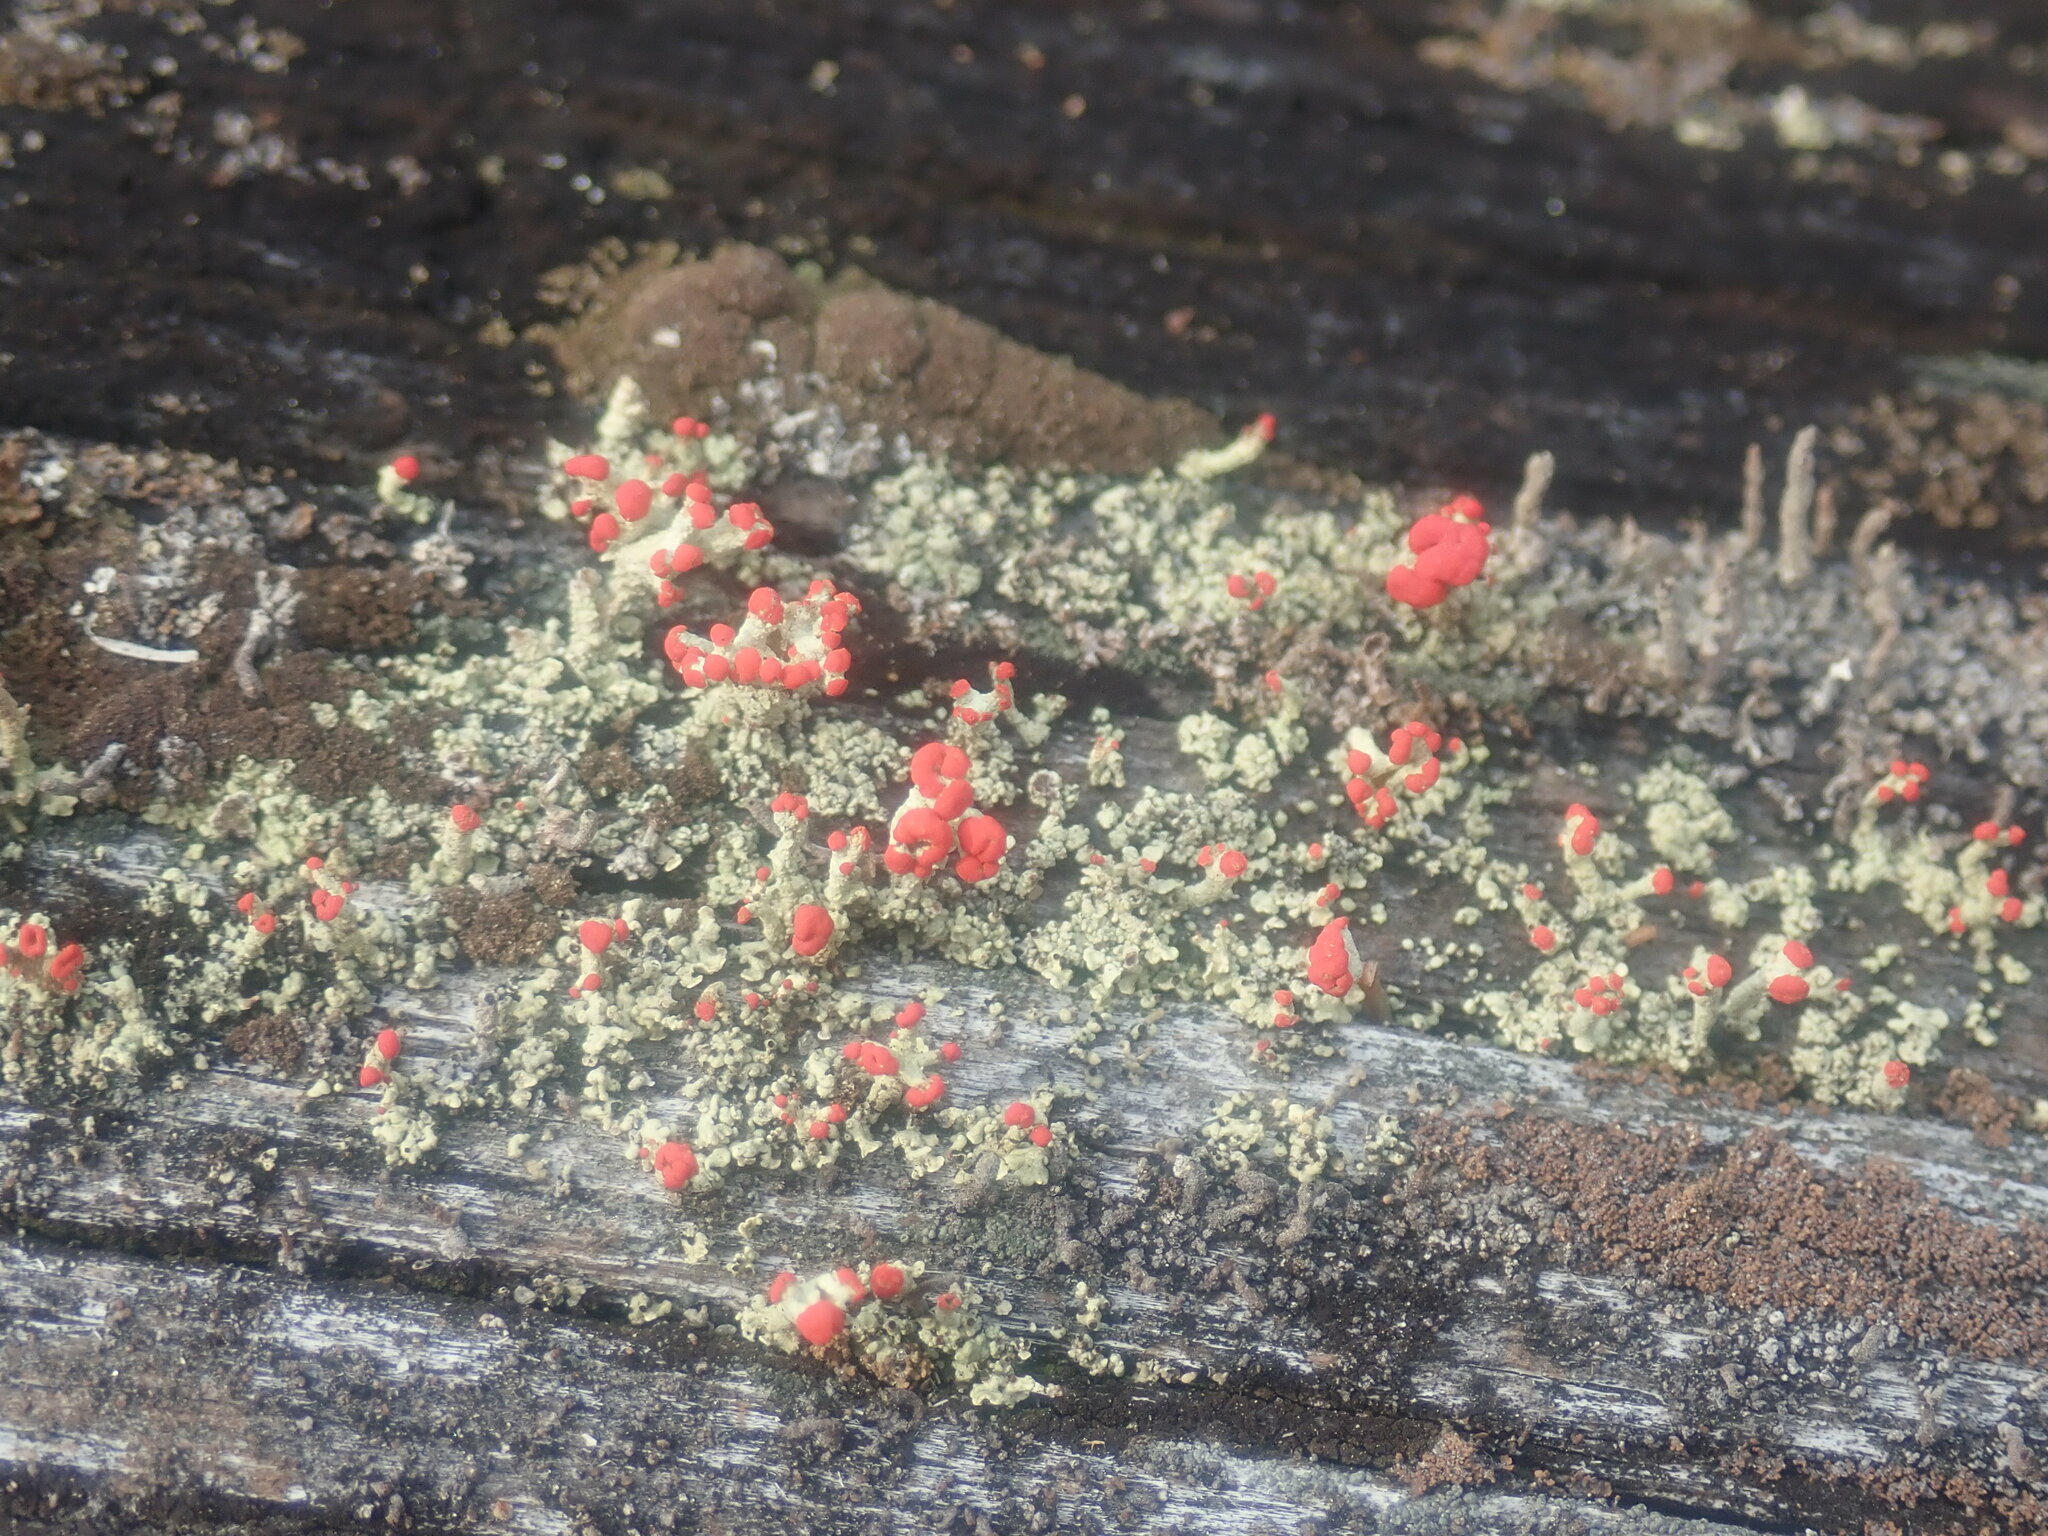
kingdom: Fungi
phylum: Ascomycota
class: Lecanoromycetes
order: Lecanorales
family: Cladoniaceae
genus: Cladonia
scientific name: Cladonia cristatella
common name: British soldier lichen
